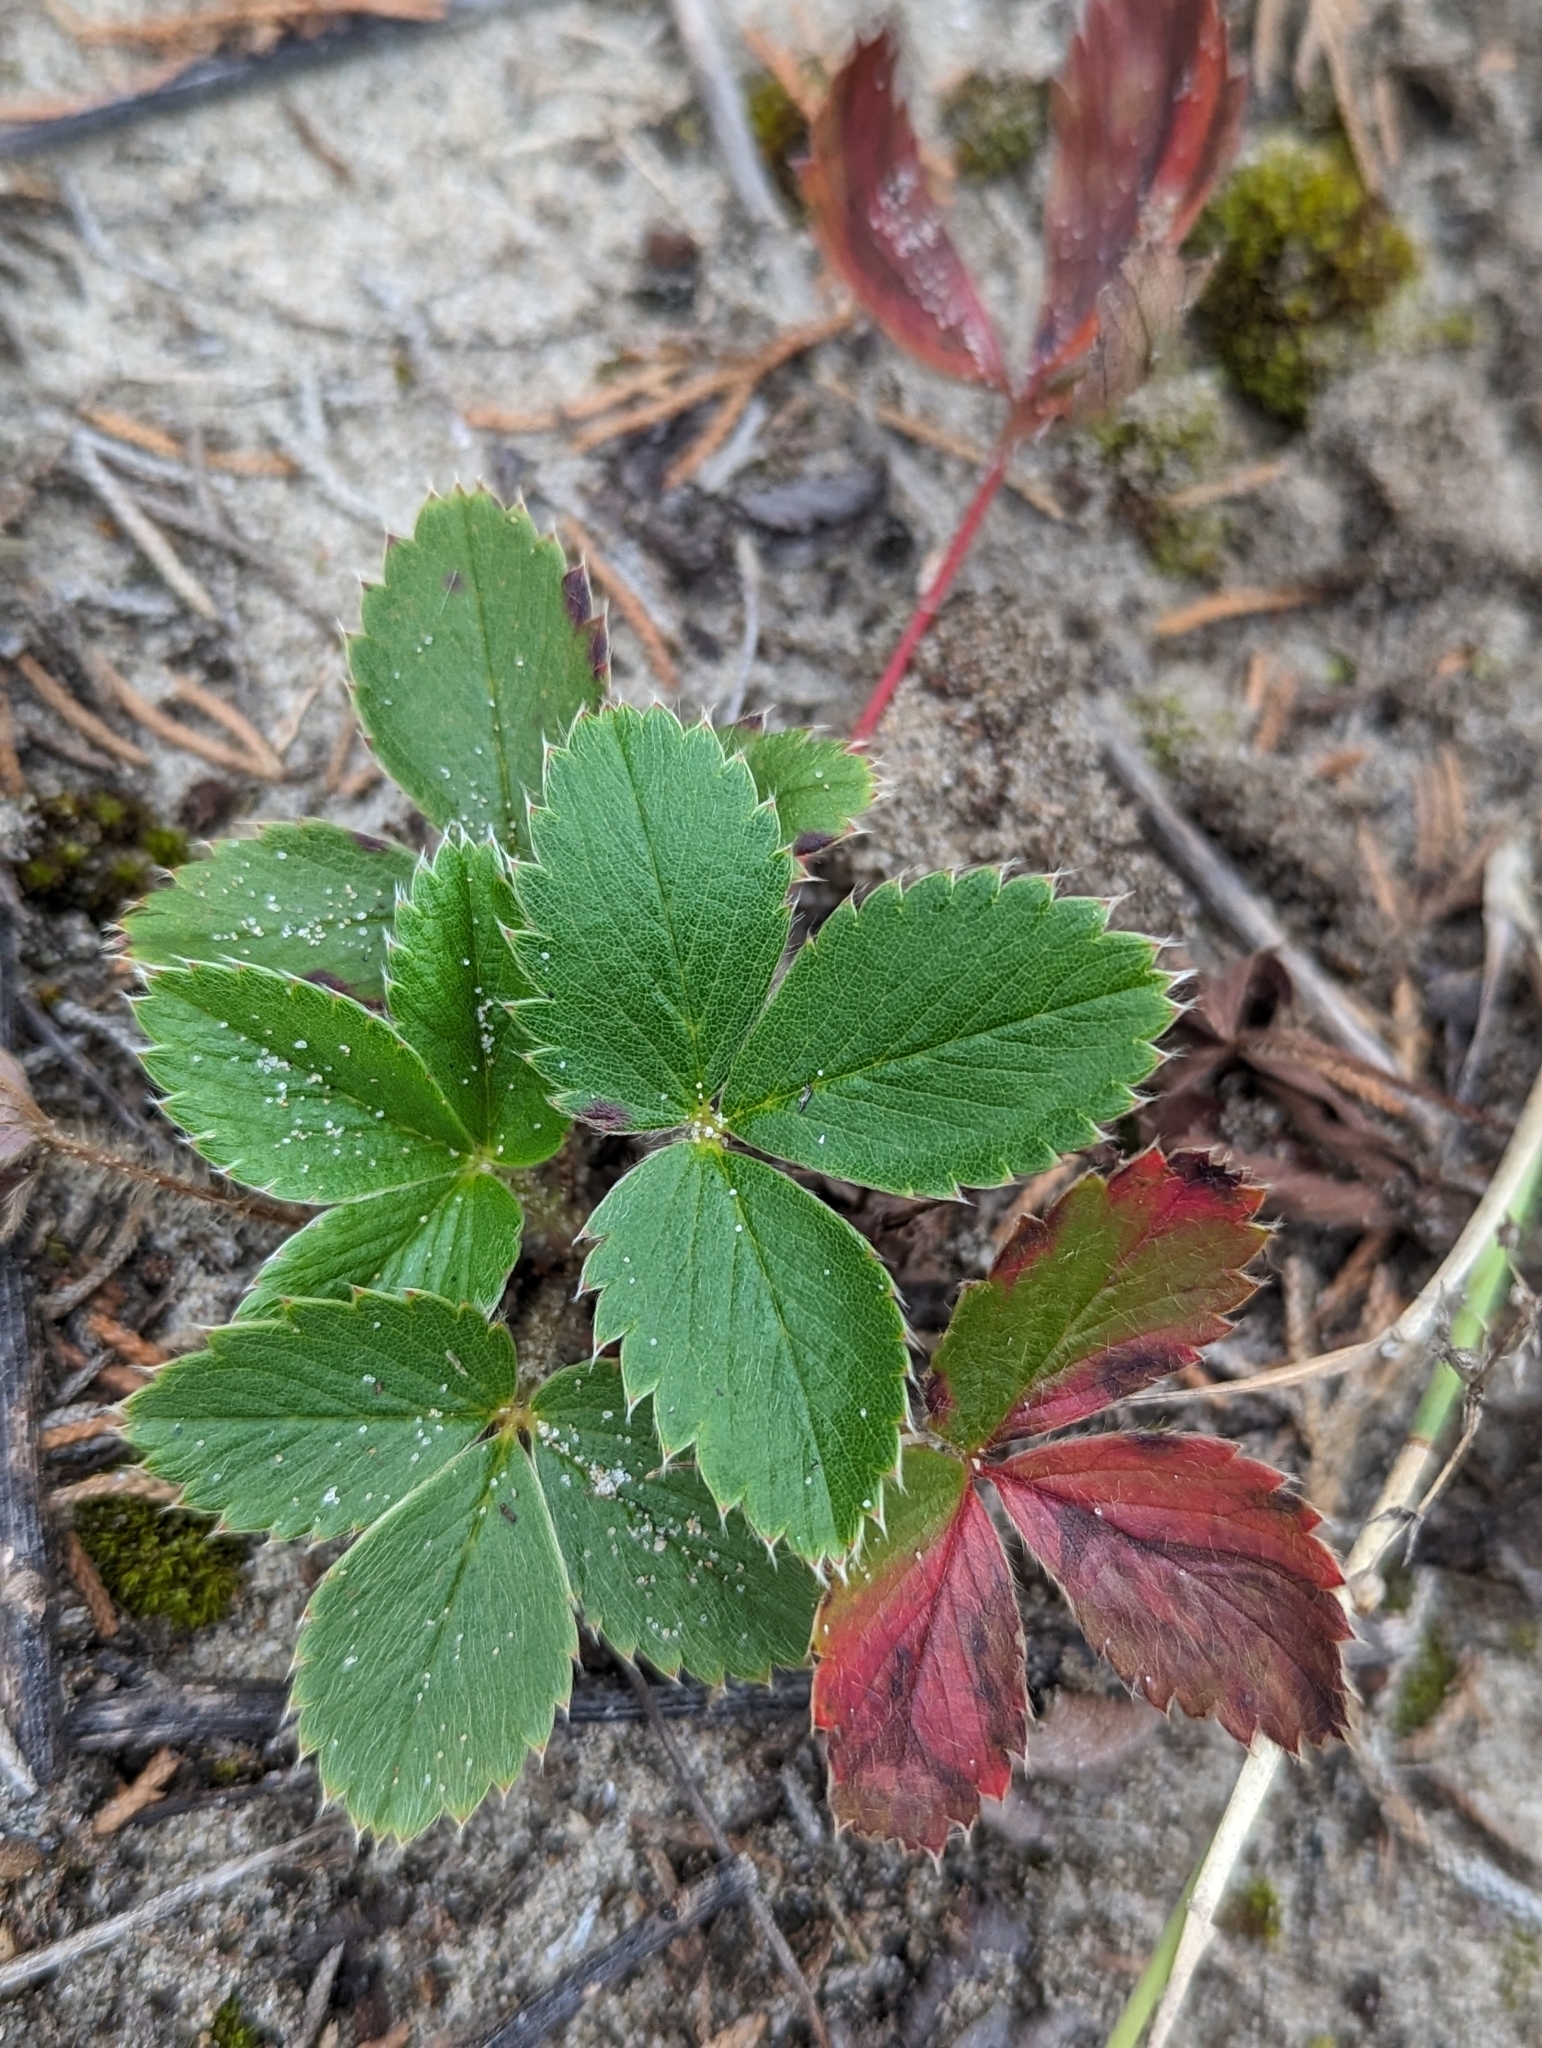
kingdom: Plantae
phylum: Tracheophyta
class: Magnoliopsida
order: Rosales
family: Rosaceae
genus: Fragaria
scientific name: Fragaria virginiana
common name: Thickleaved wild strawberry
